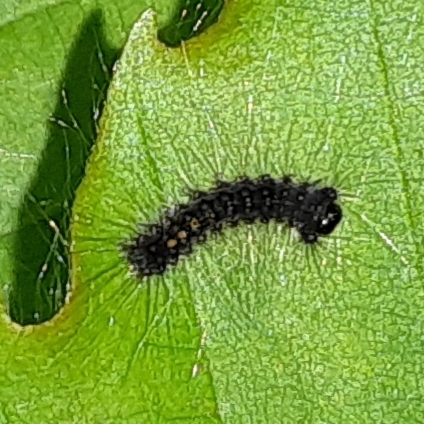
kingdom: Animalia
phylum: Arthropoda
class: Insecta
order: Lepidoptera
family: Erebidae
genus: Lymantria
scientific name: Lymantria dispar
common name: Gypsy moth
